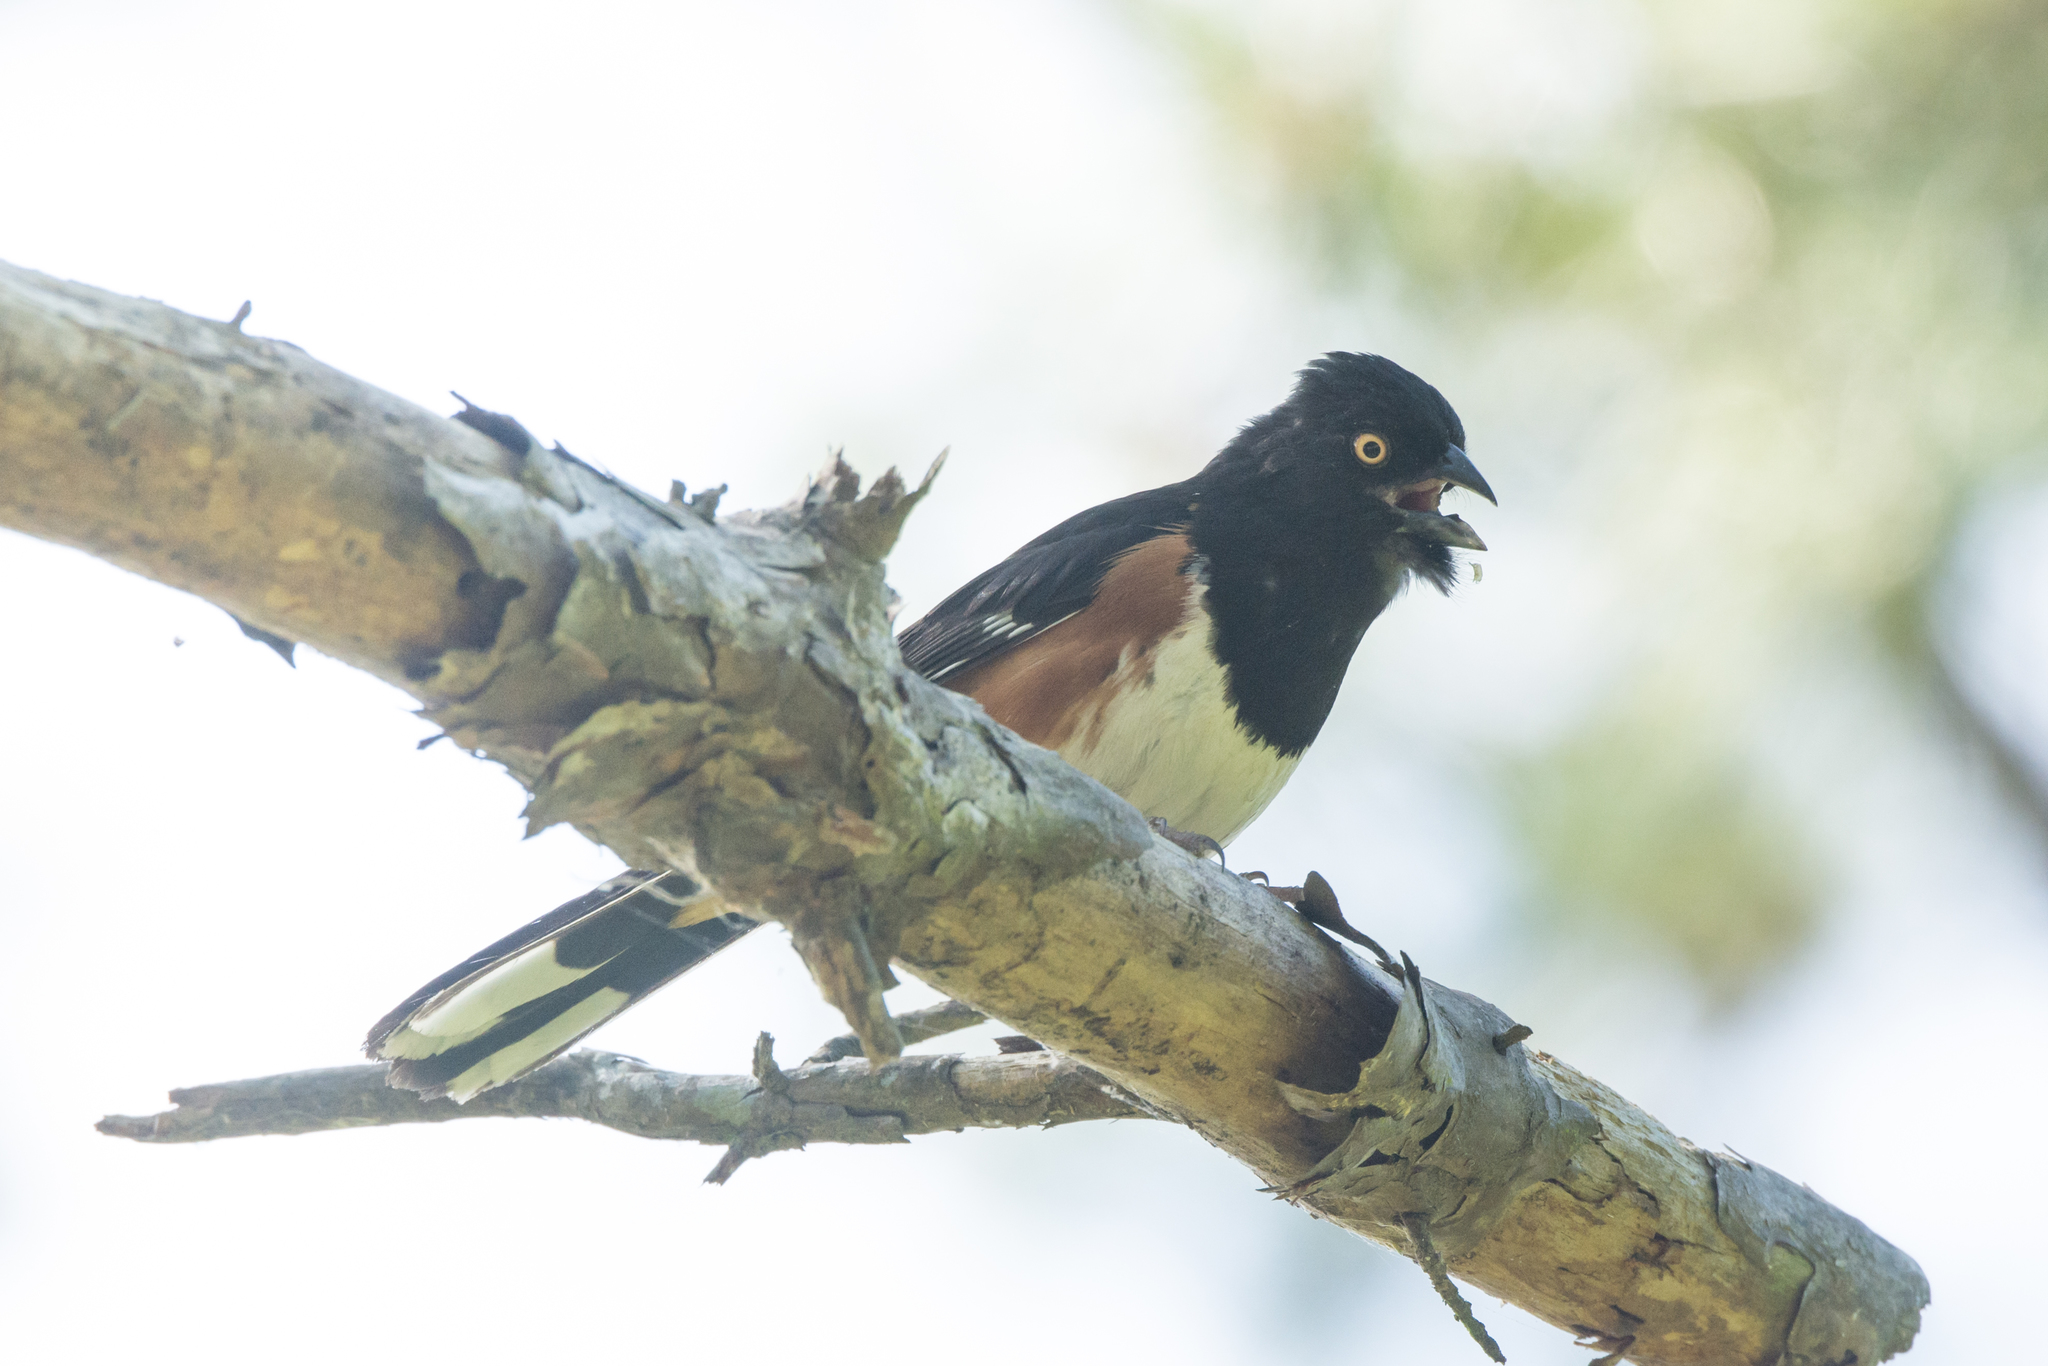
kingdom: Animalia
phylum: Chordata
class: Aves
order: Passeriformes
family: Passerellidae
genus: Pipilo
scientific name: Pipilo erythrophthalmus
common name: Eastern towhee
